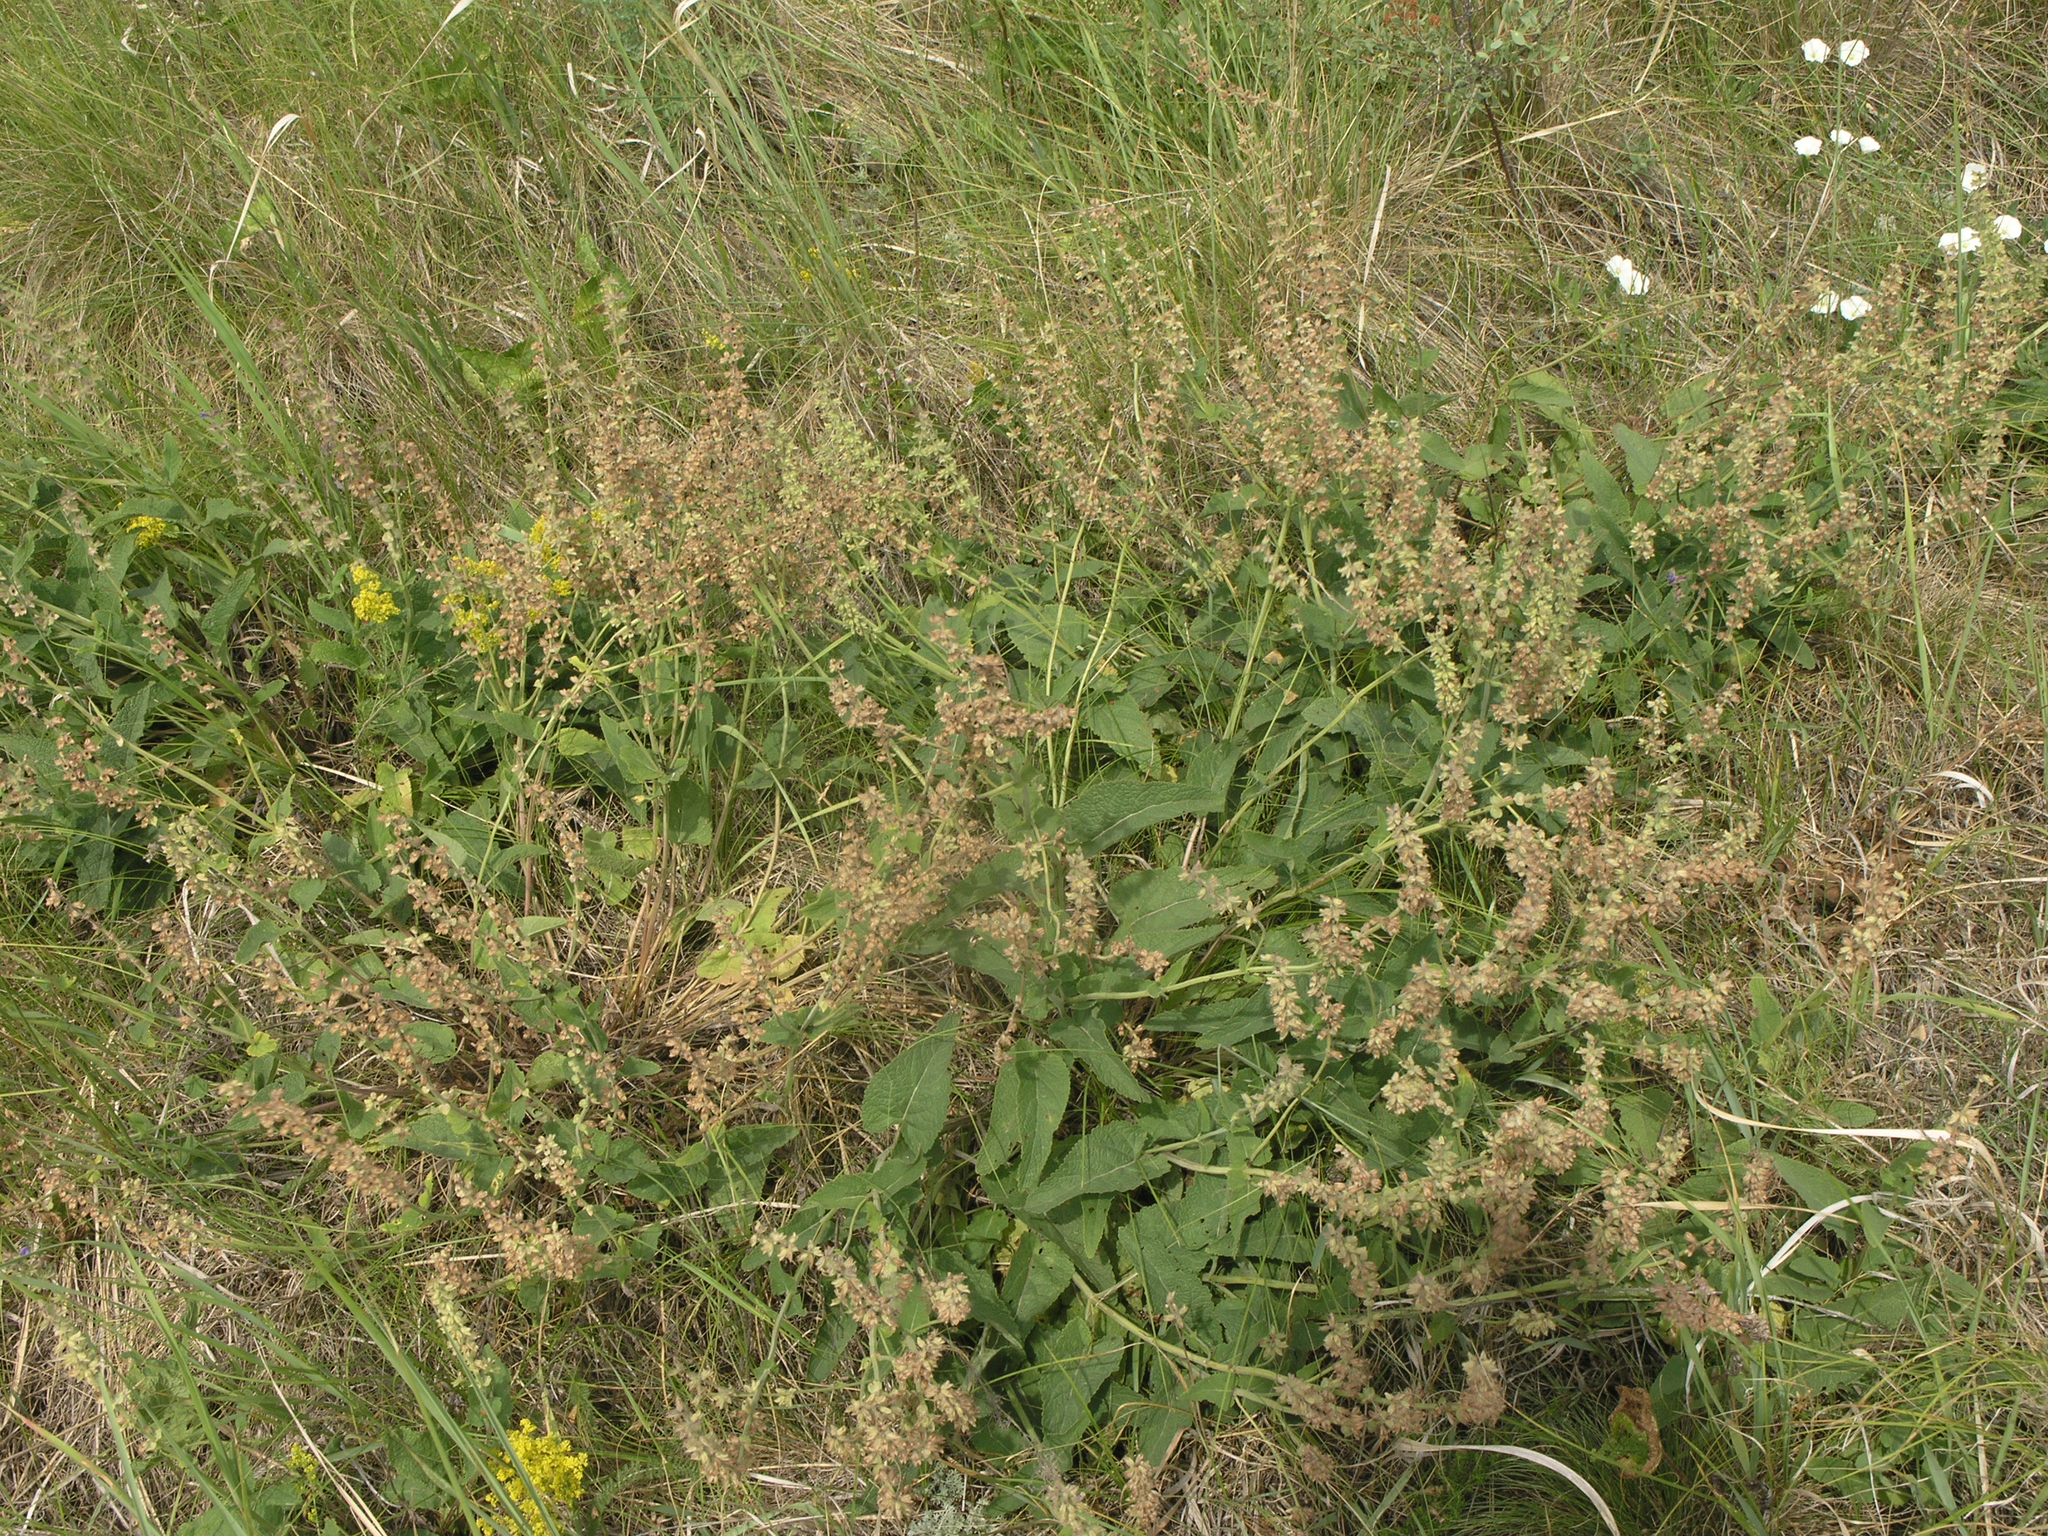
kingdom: Plantae
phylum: Tracheophyta
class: Magnoliopsida
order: Lamiales
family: Lamiaceae
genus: Salvia
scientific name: Salvia dumetorum
